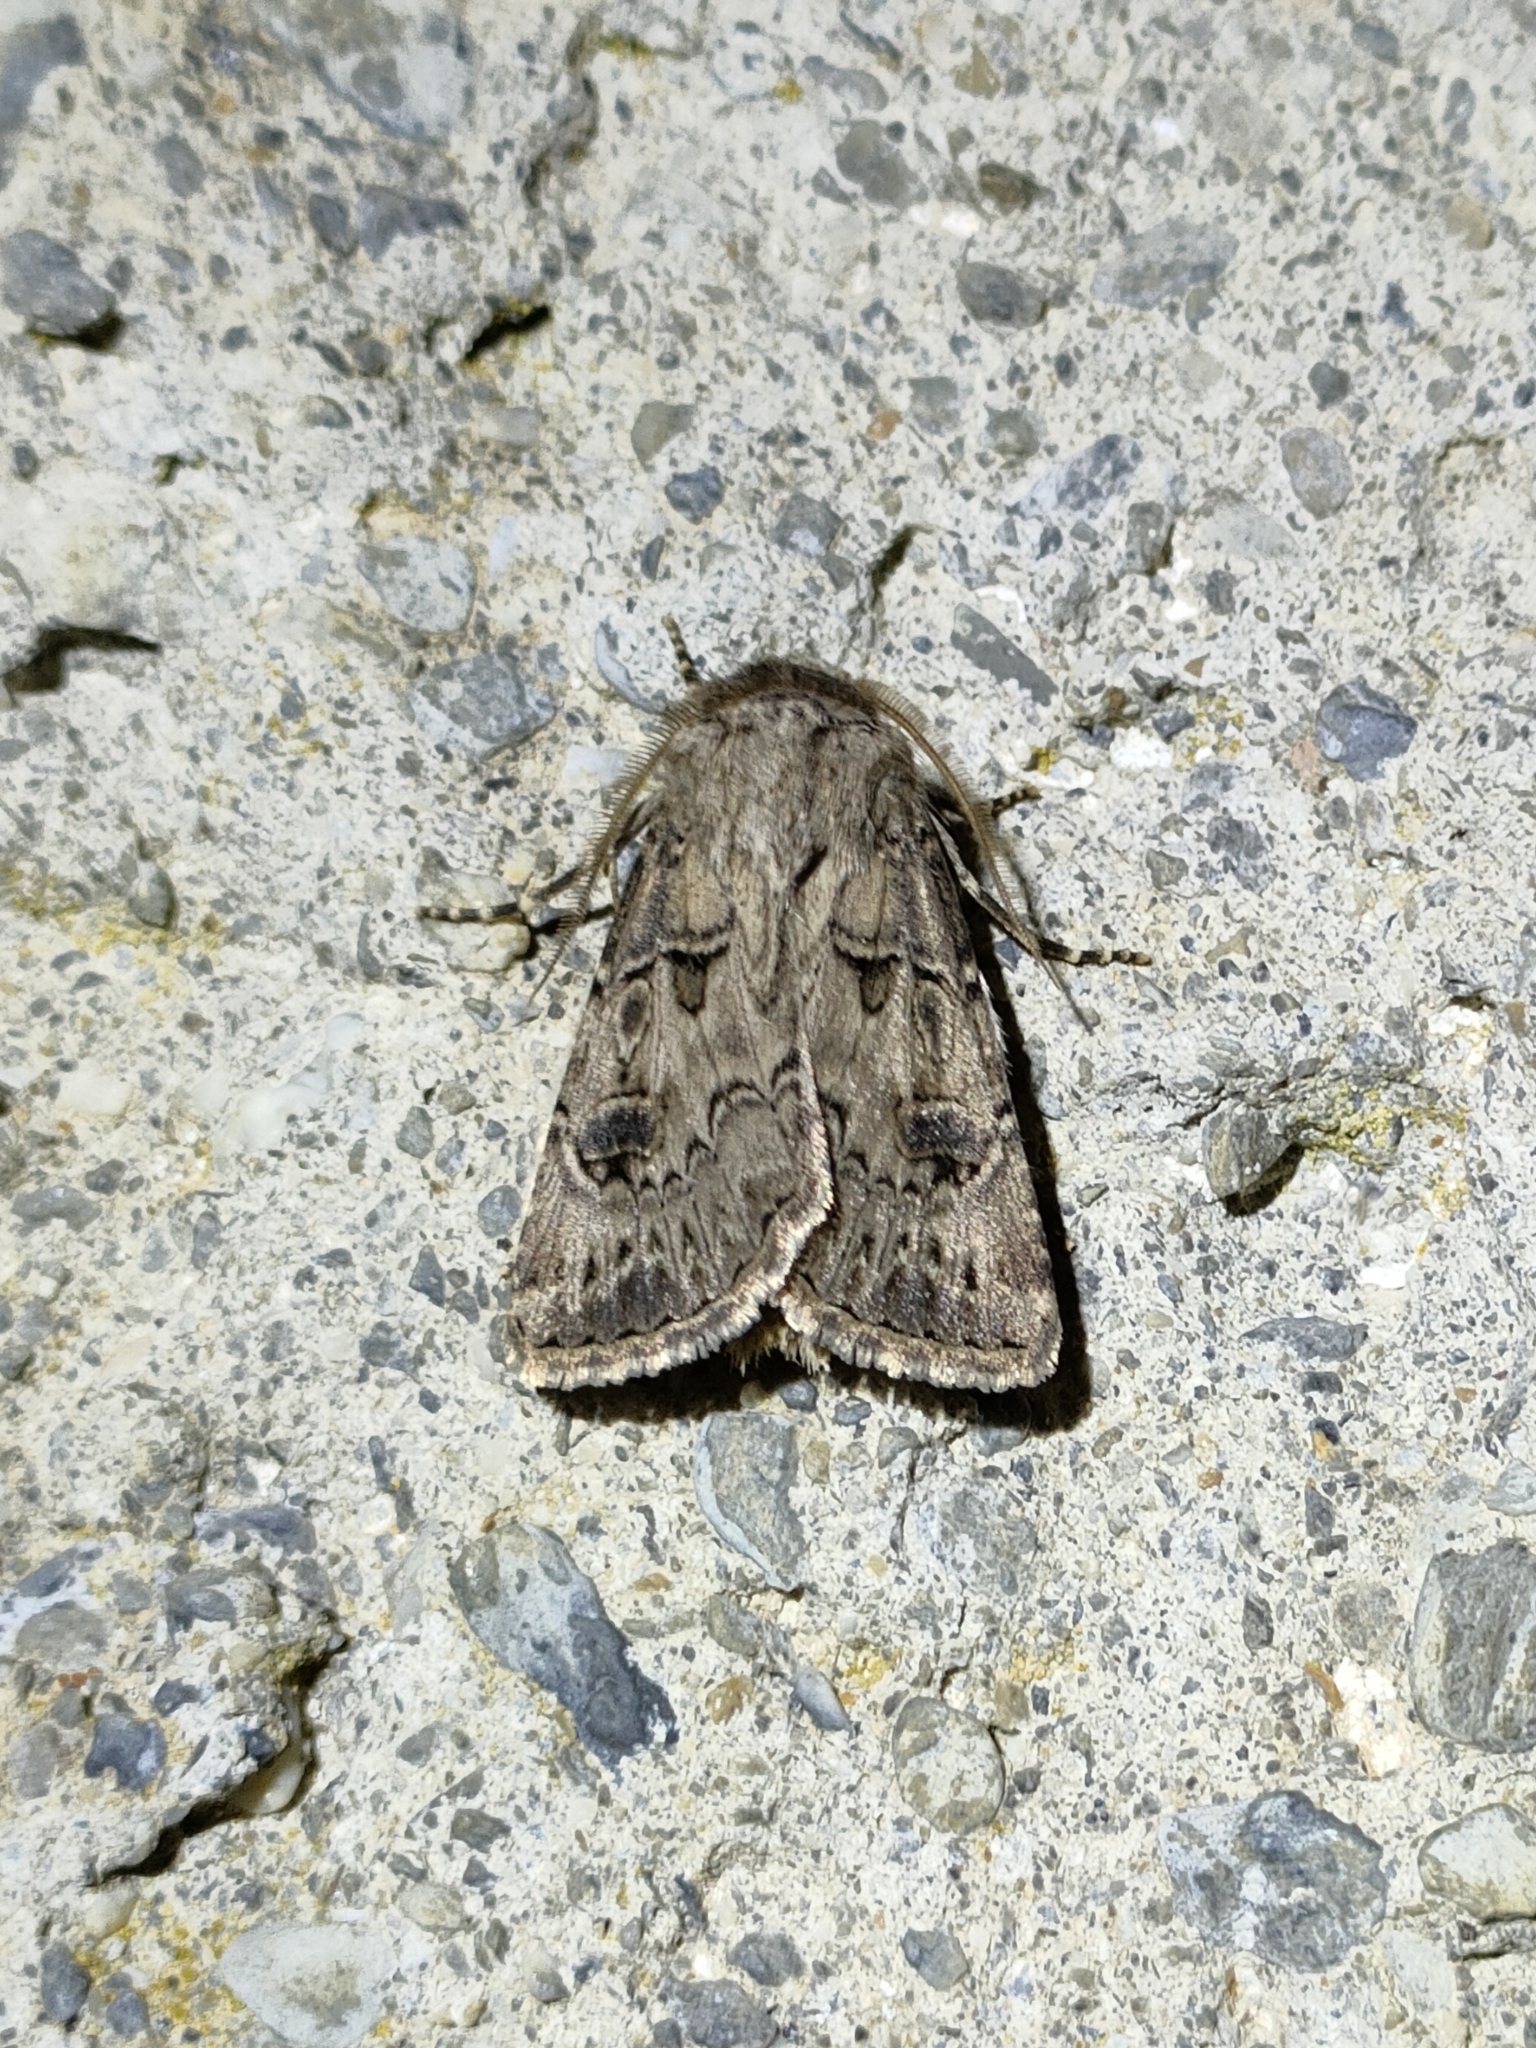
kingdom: Animalia
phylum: Arthropoda
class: Insecta
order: Lepidoptera
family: Noctuidae
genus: Agrotis
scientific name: Agrotis bigramma
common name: Great dart
